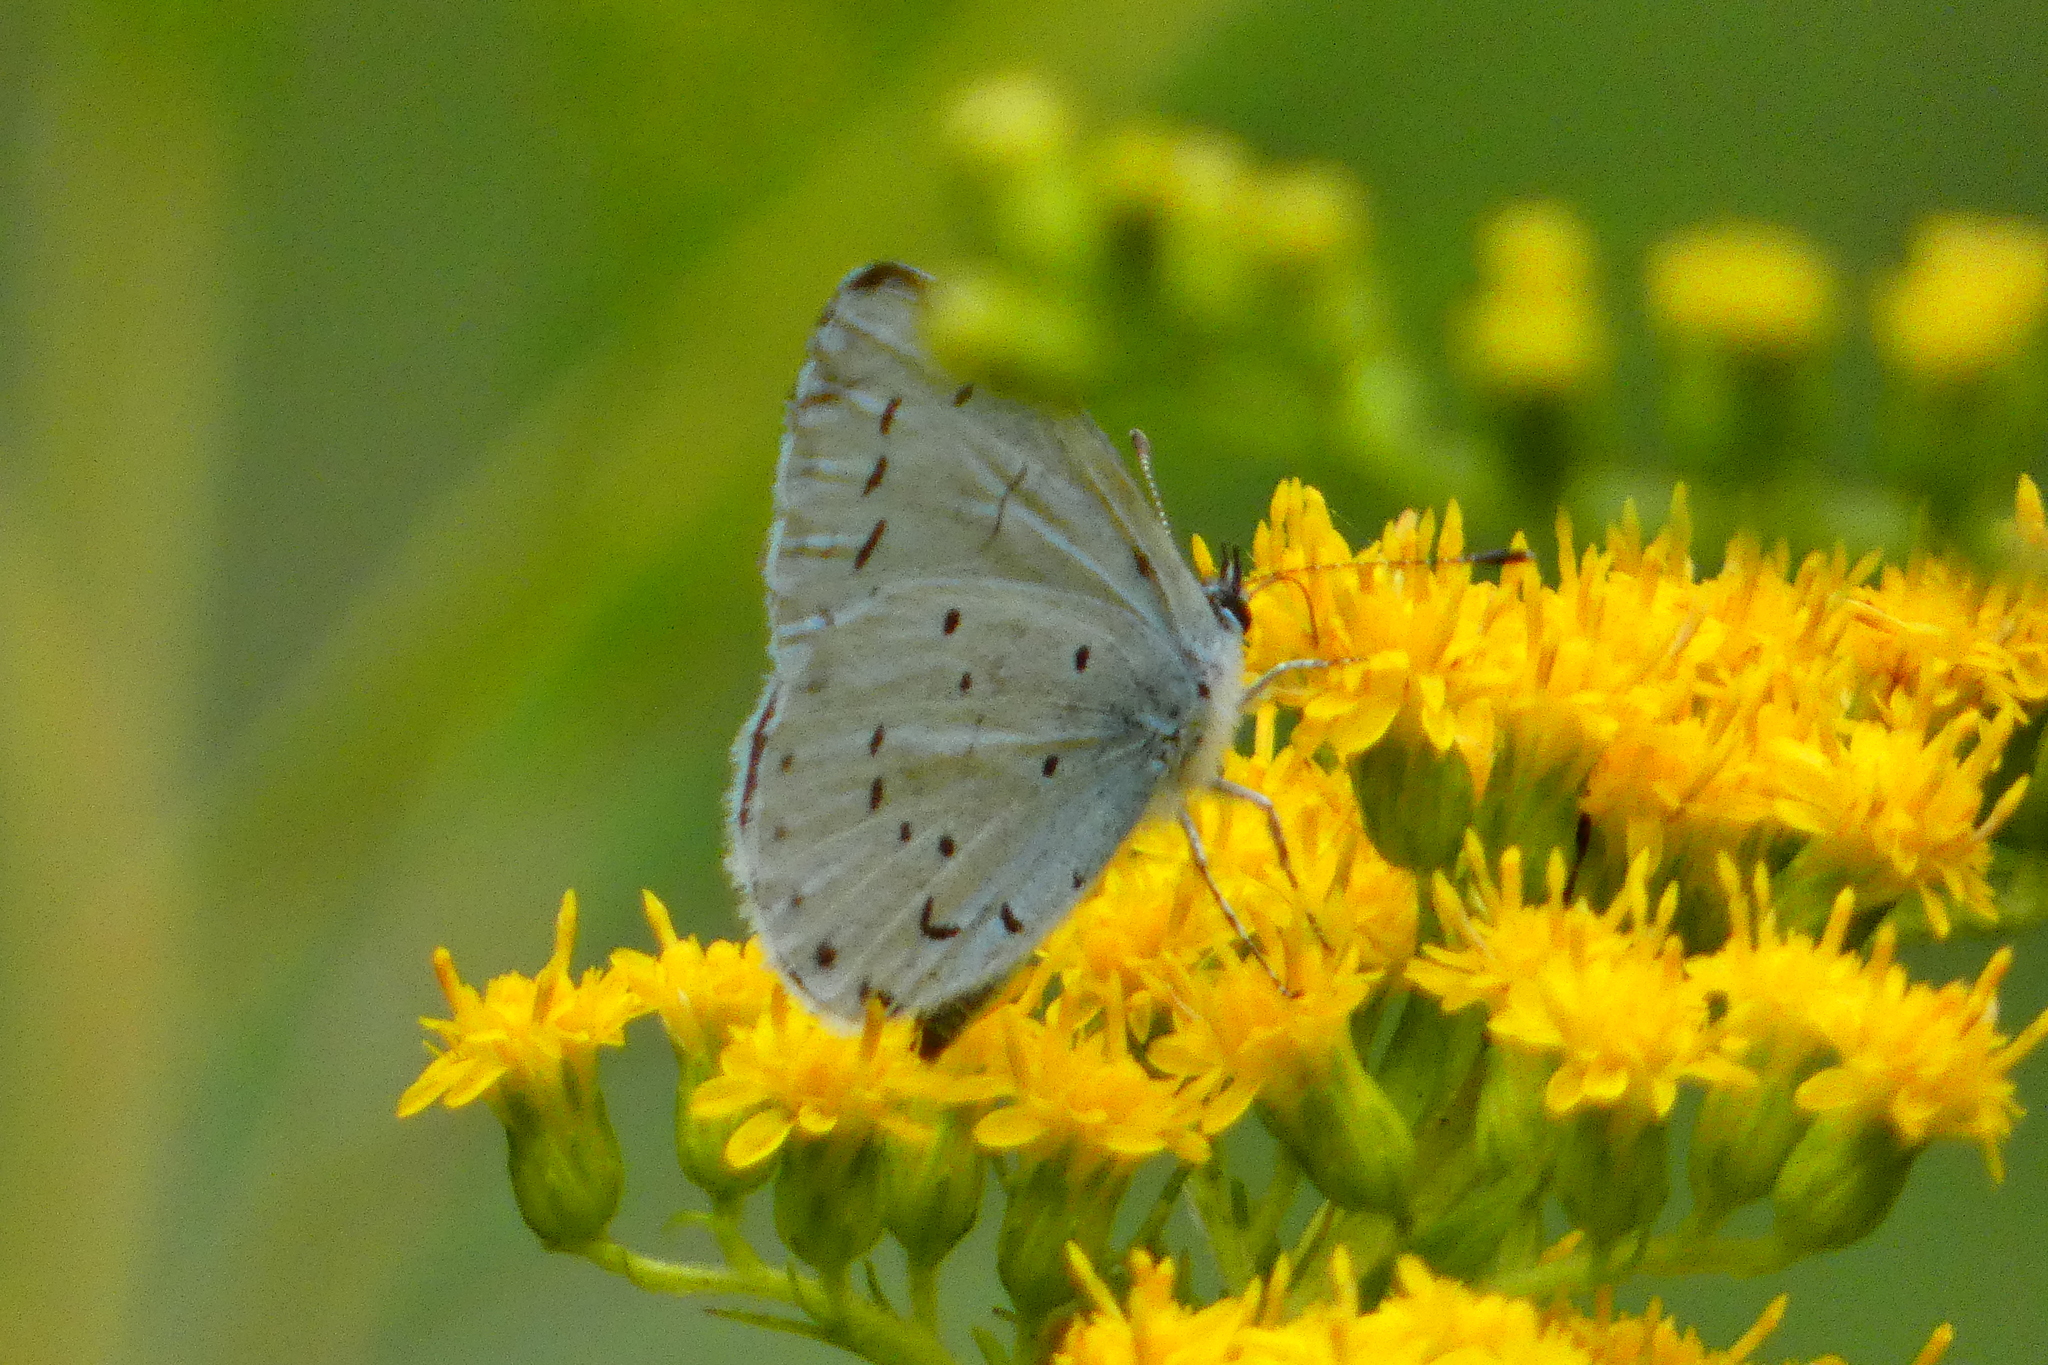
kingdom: Animalia
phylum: Arthropoda
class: Insecta
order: Lepidoptera
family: Lycaenidae
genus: Celastrina
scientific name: Celastrina argiolus
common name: Holly blue
